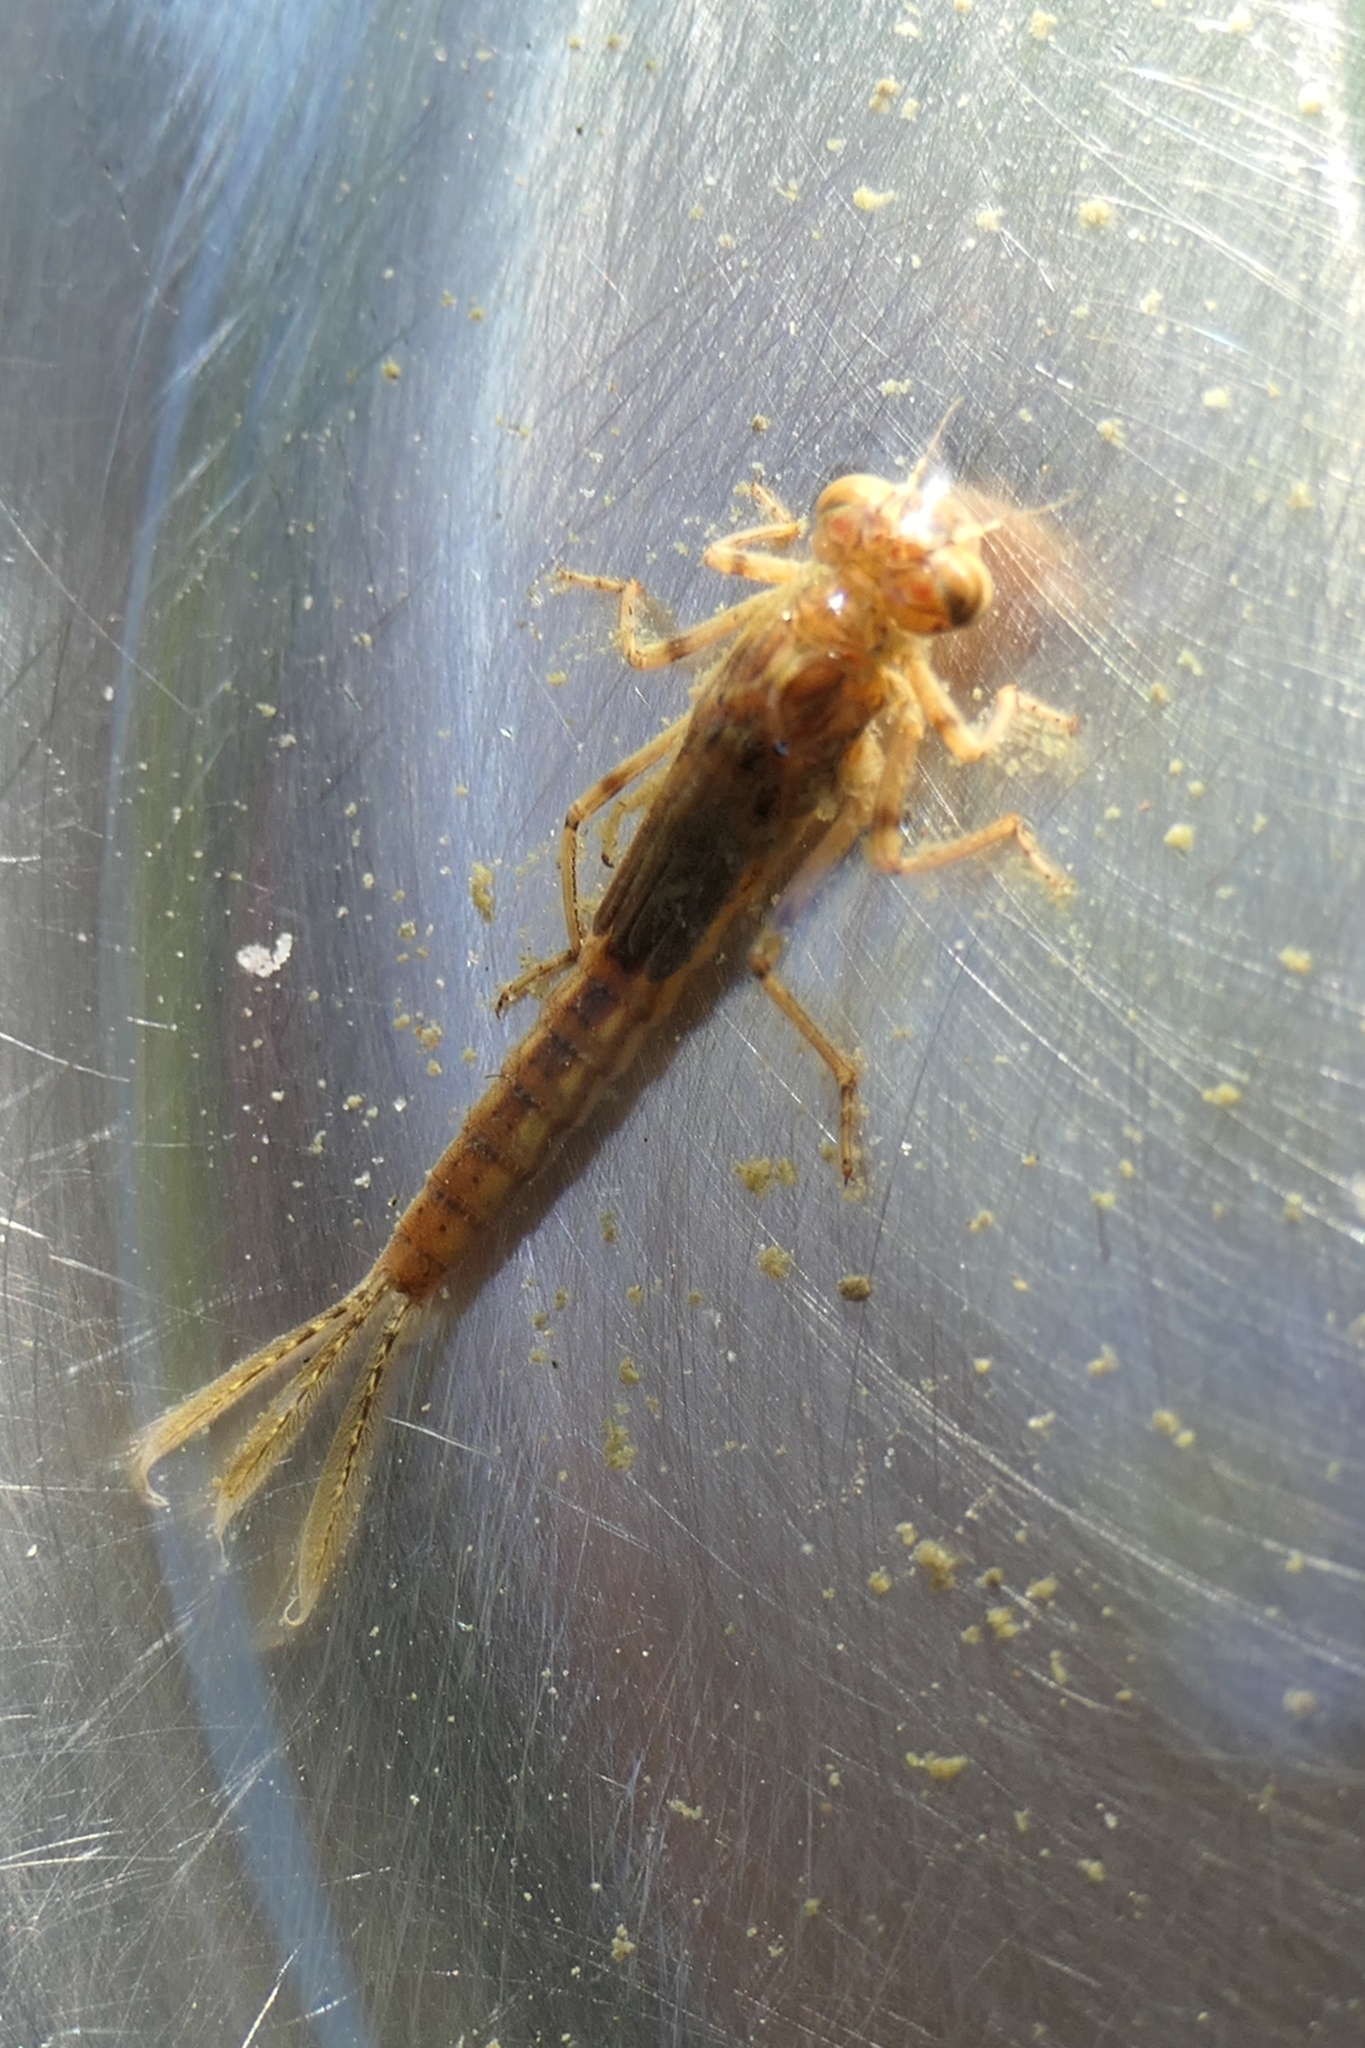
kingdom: Animalia
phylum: Arthropoda
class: Insecta
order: Odonata
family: Coenagrionidae
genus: Xanthocnemis
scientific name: Xanthocnemis zealandica
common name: Common redcoat damselfly
